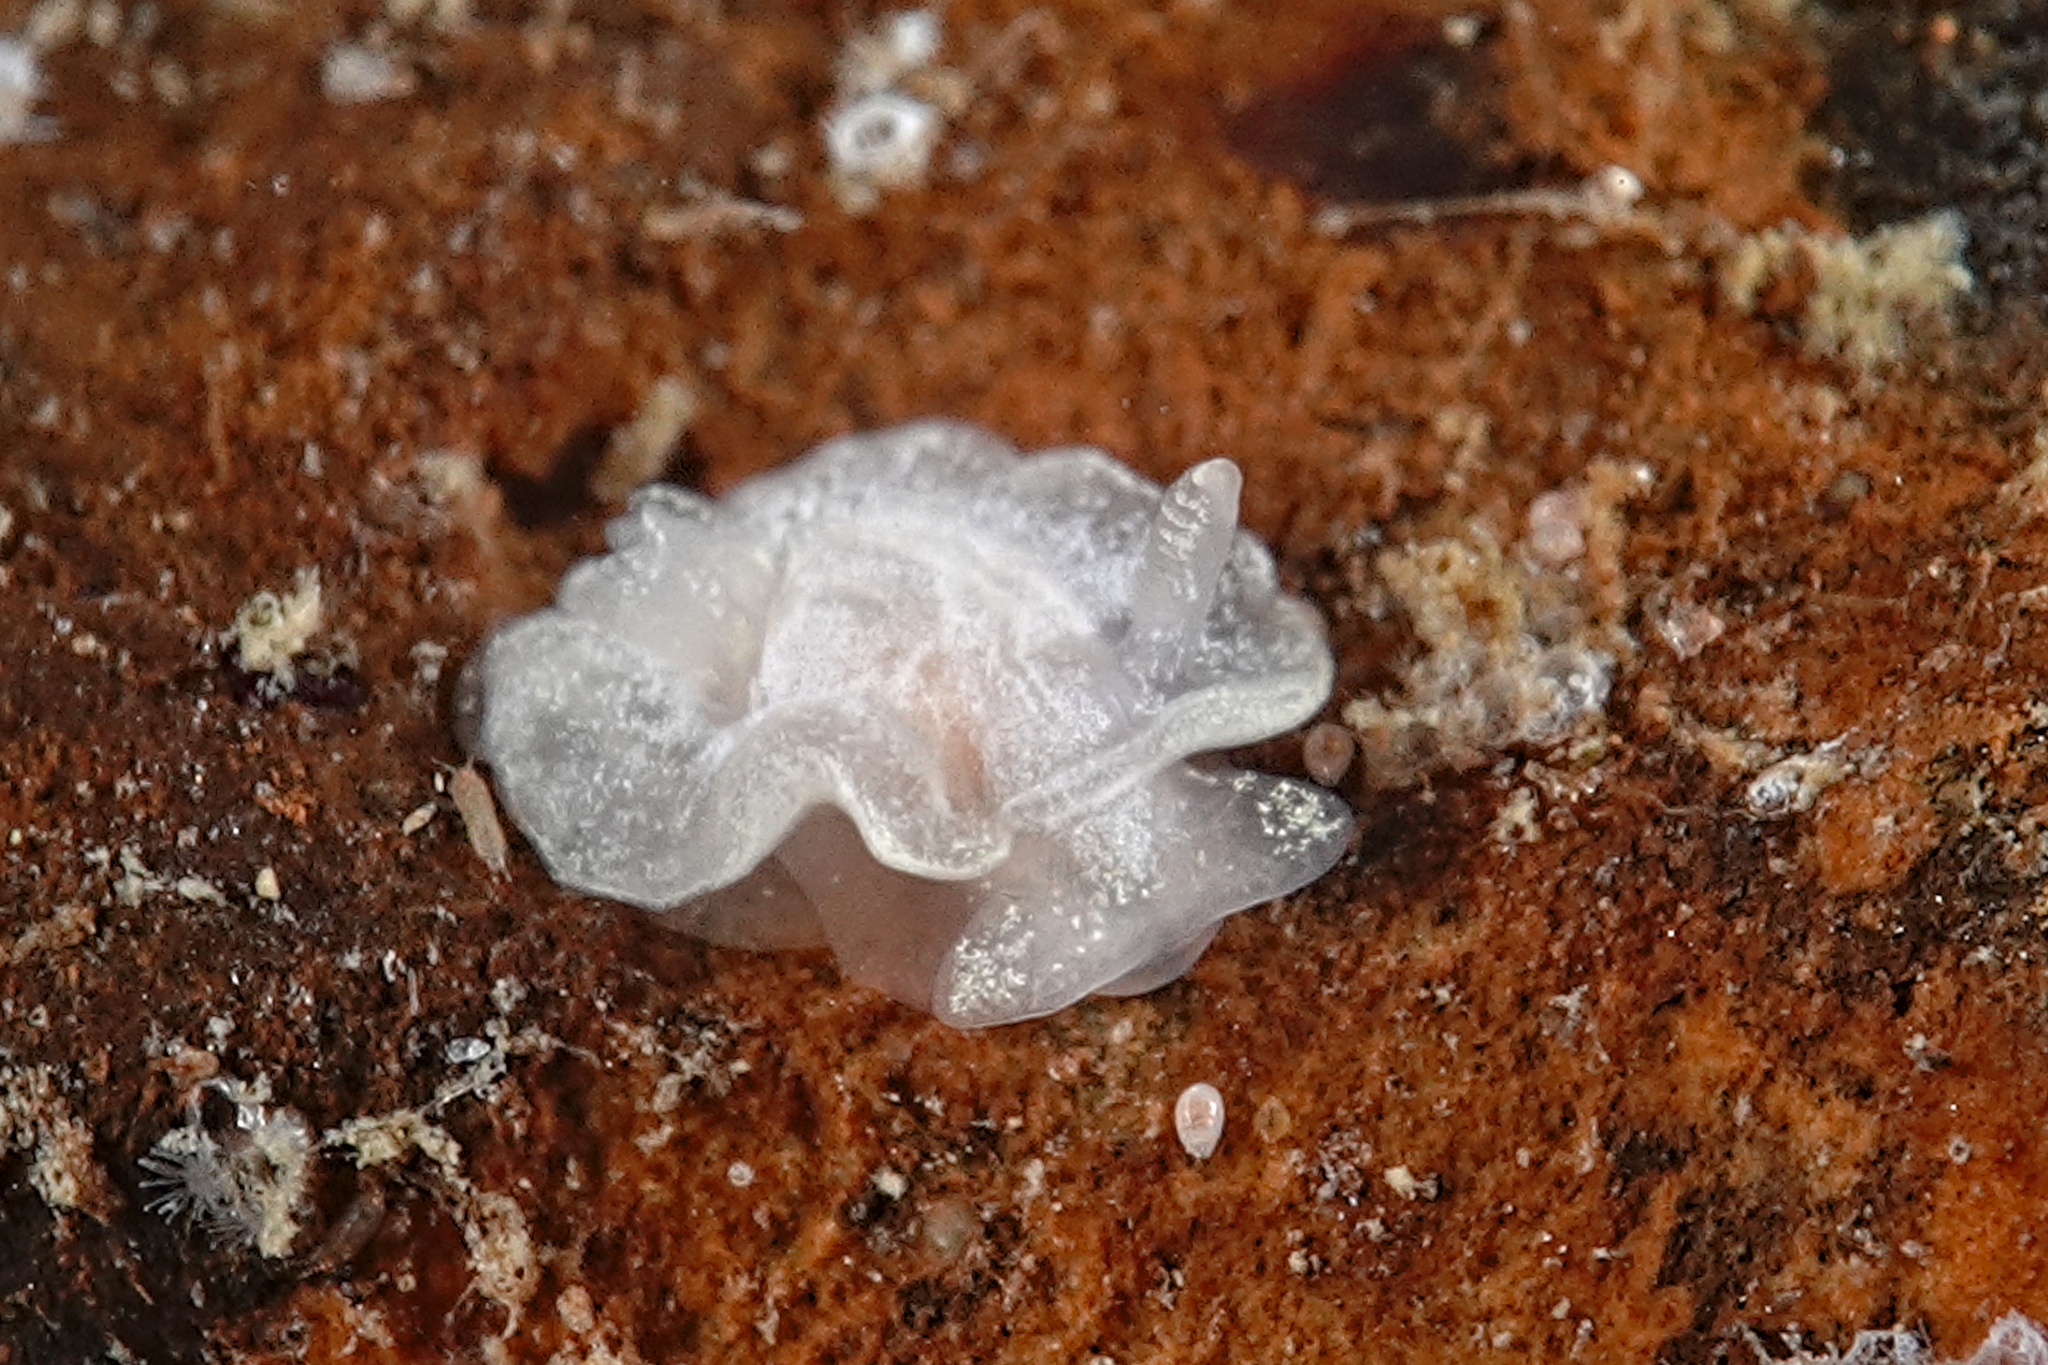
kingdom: Animalia
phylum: Mollusca
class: Gastropoda
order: Nudibranchia
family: Goniodorididae
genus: Okenia
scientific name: Okenia
